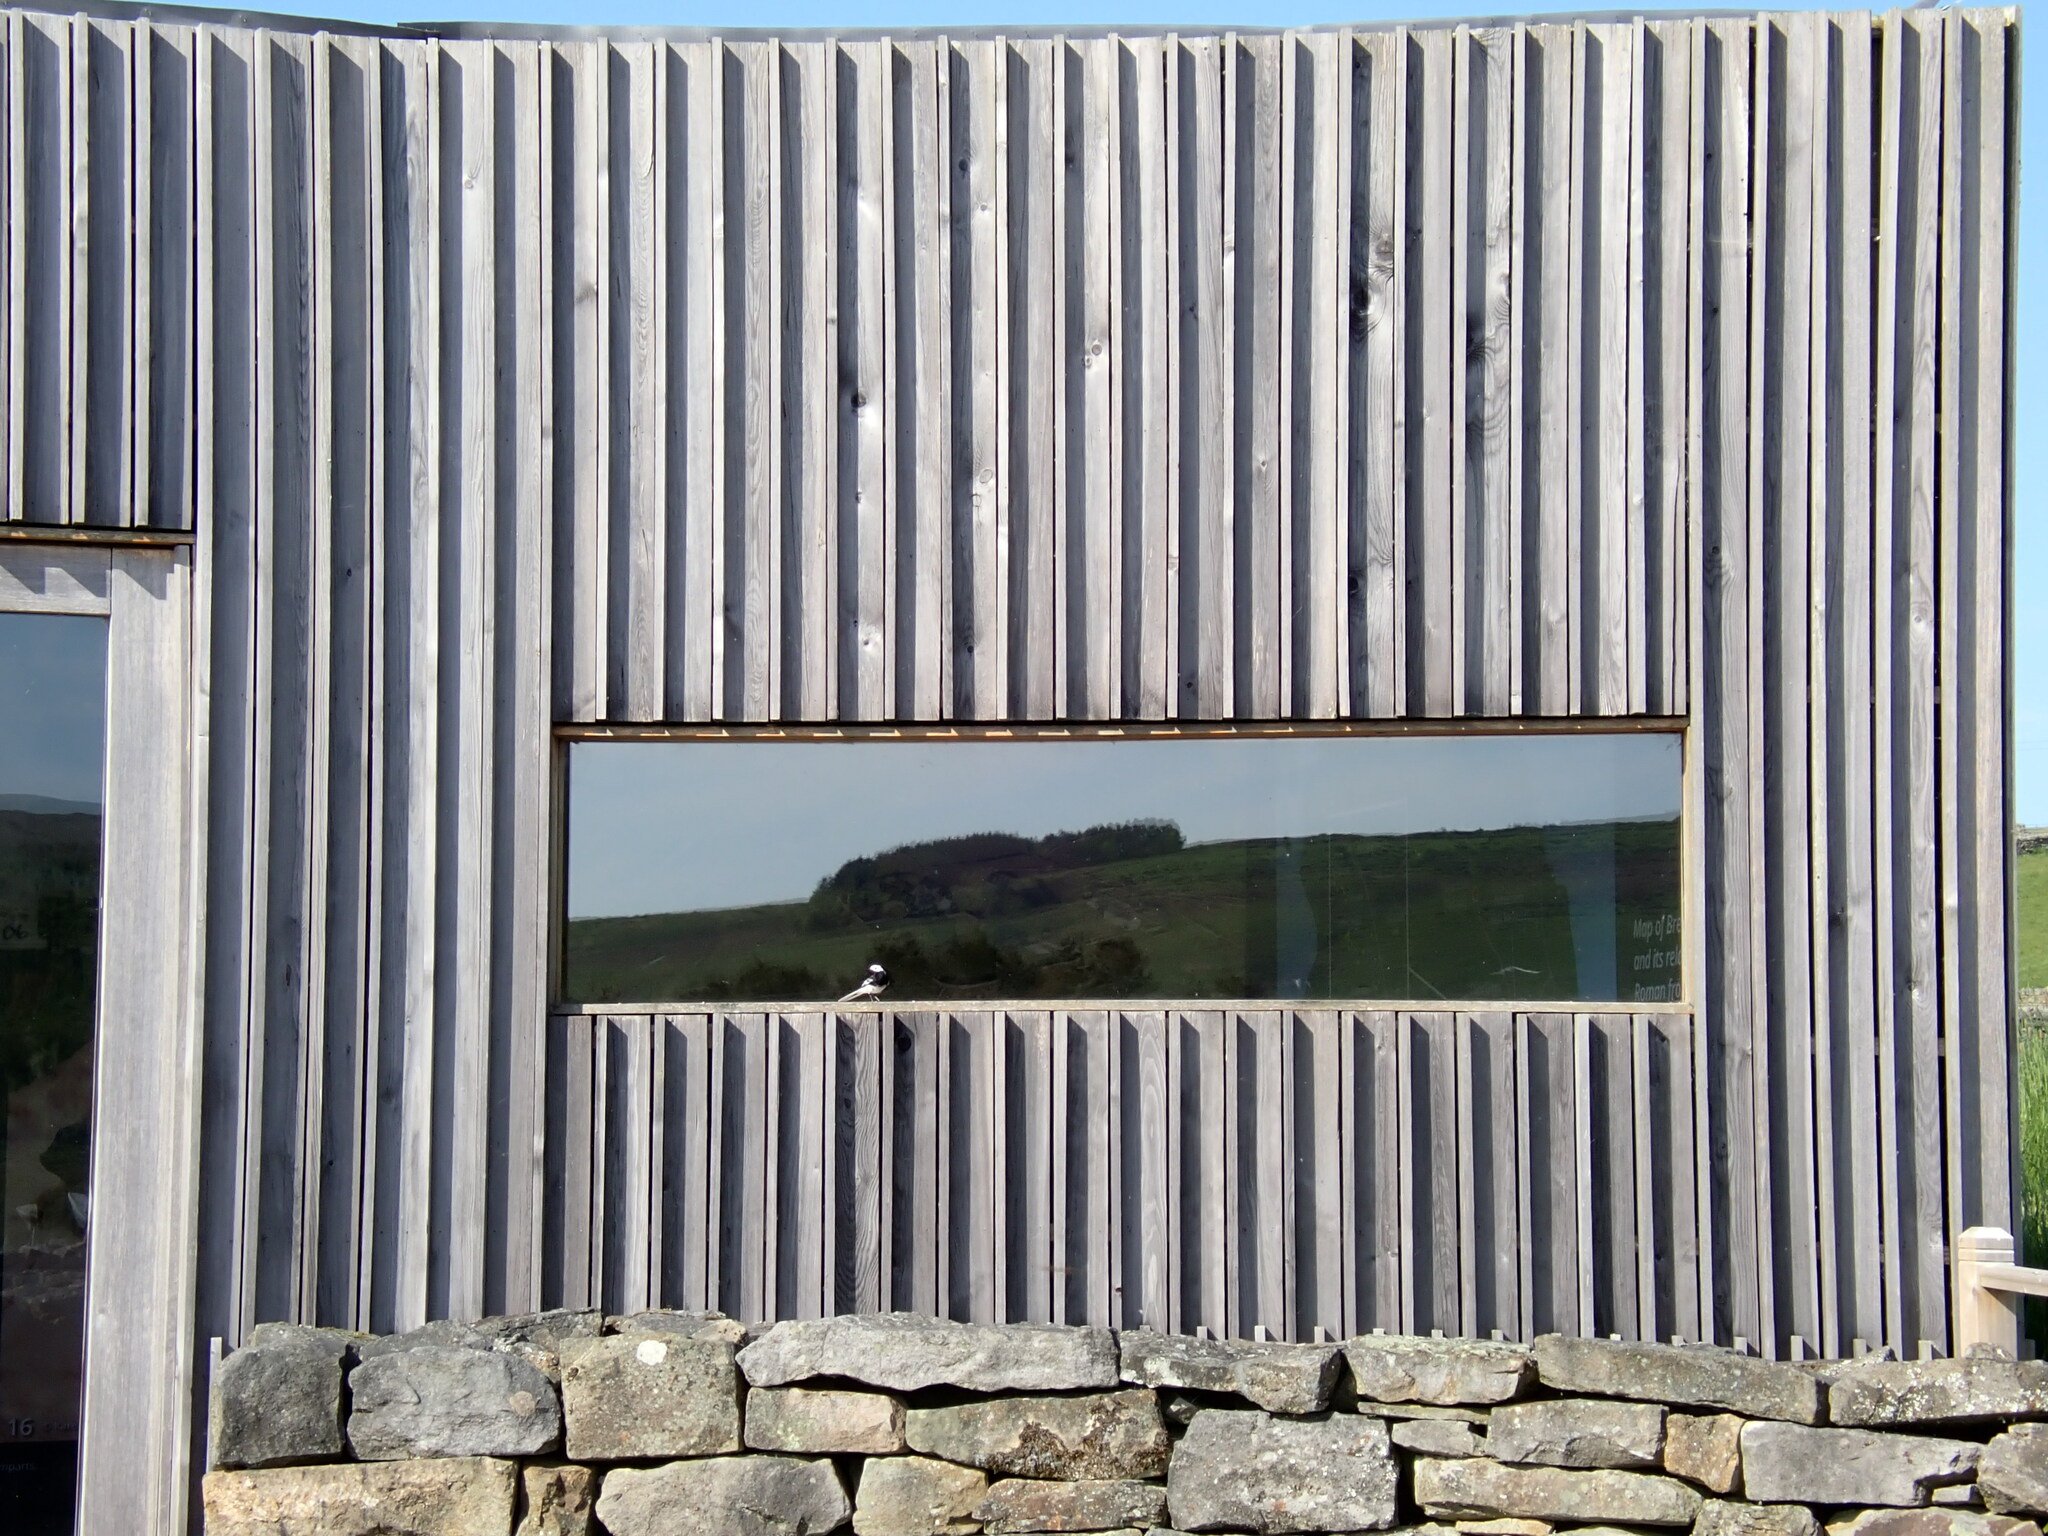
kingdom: Animalia
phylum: Chordata
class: Aves
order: Passeriformes
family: Motacillidae
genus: Motacilla
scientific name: Motacilla alba
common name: White wagtail
